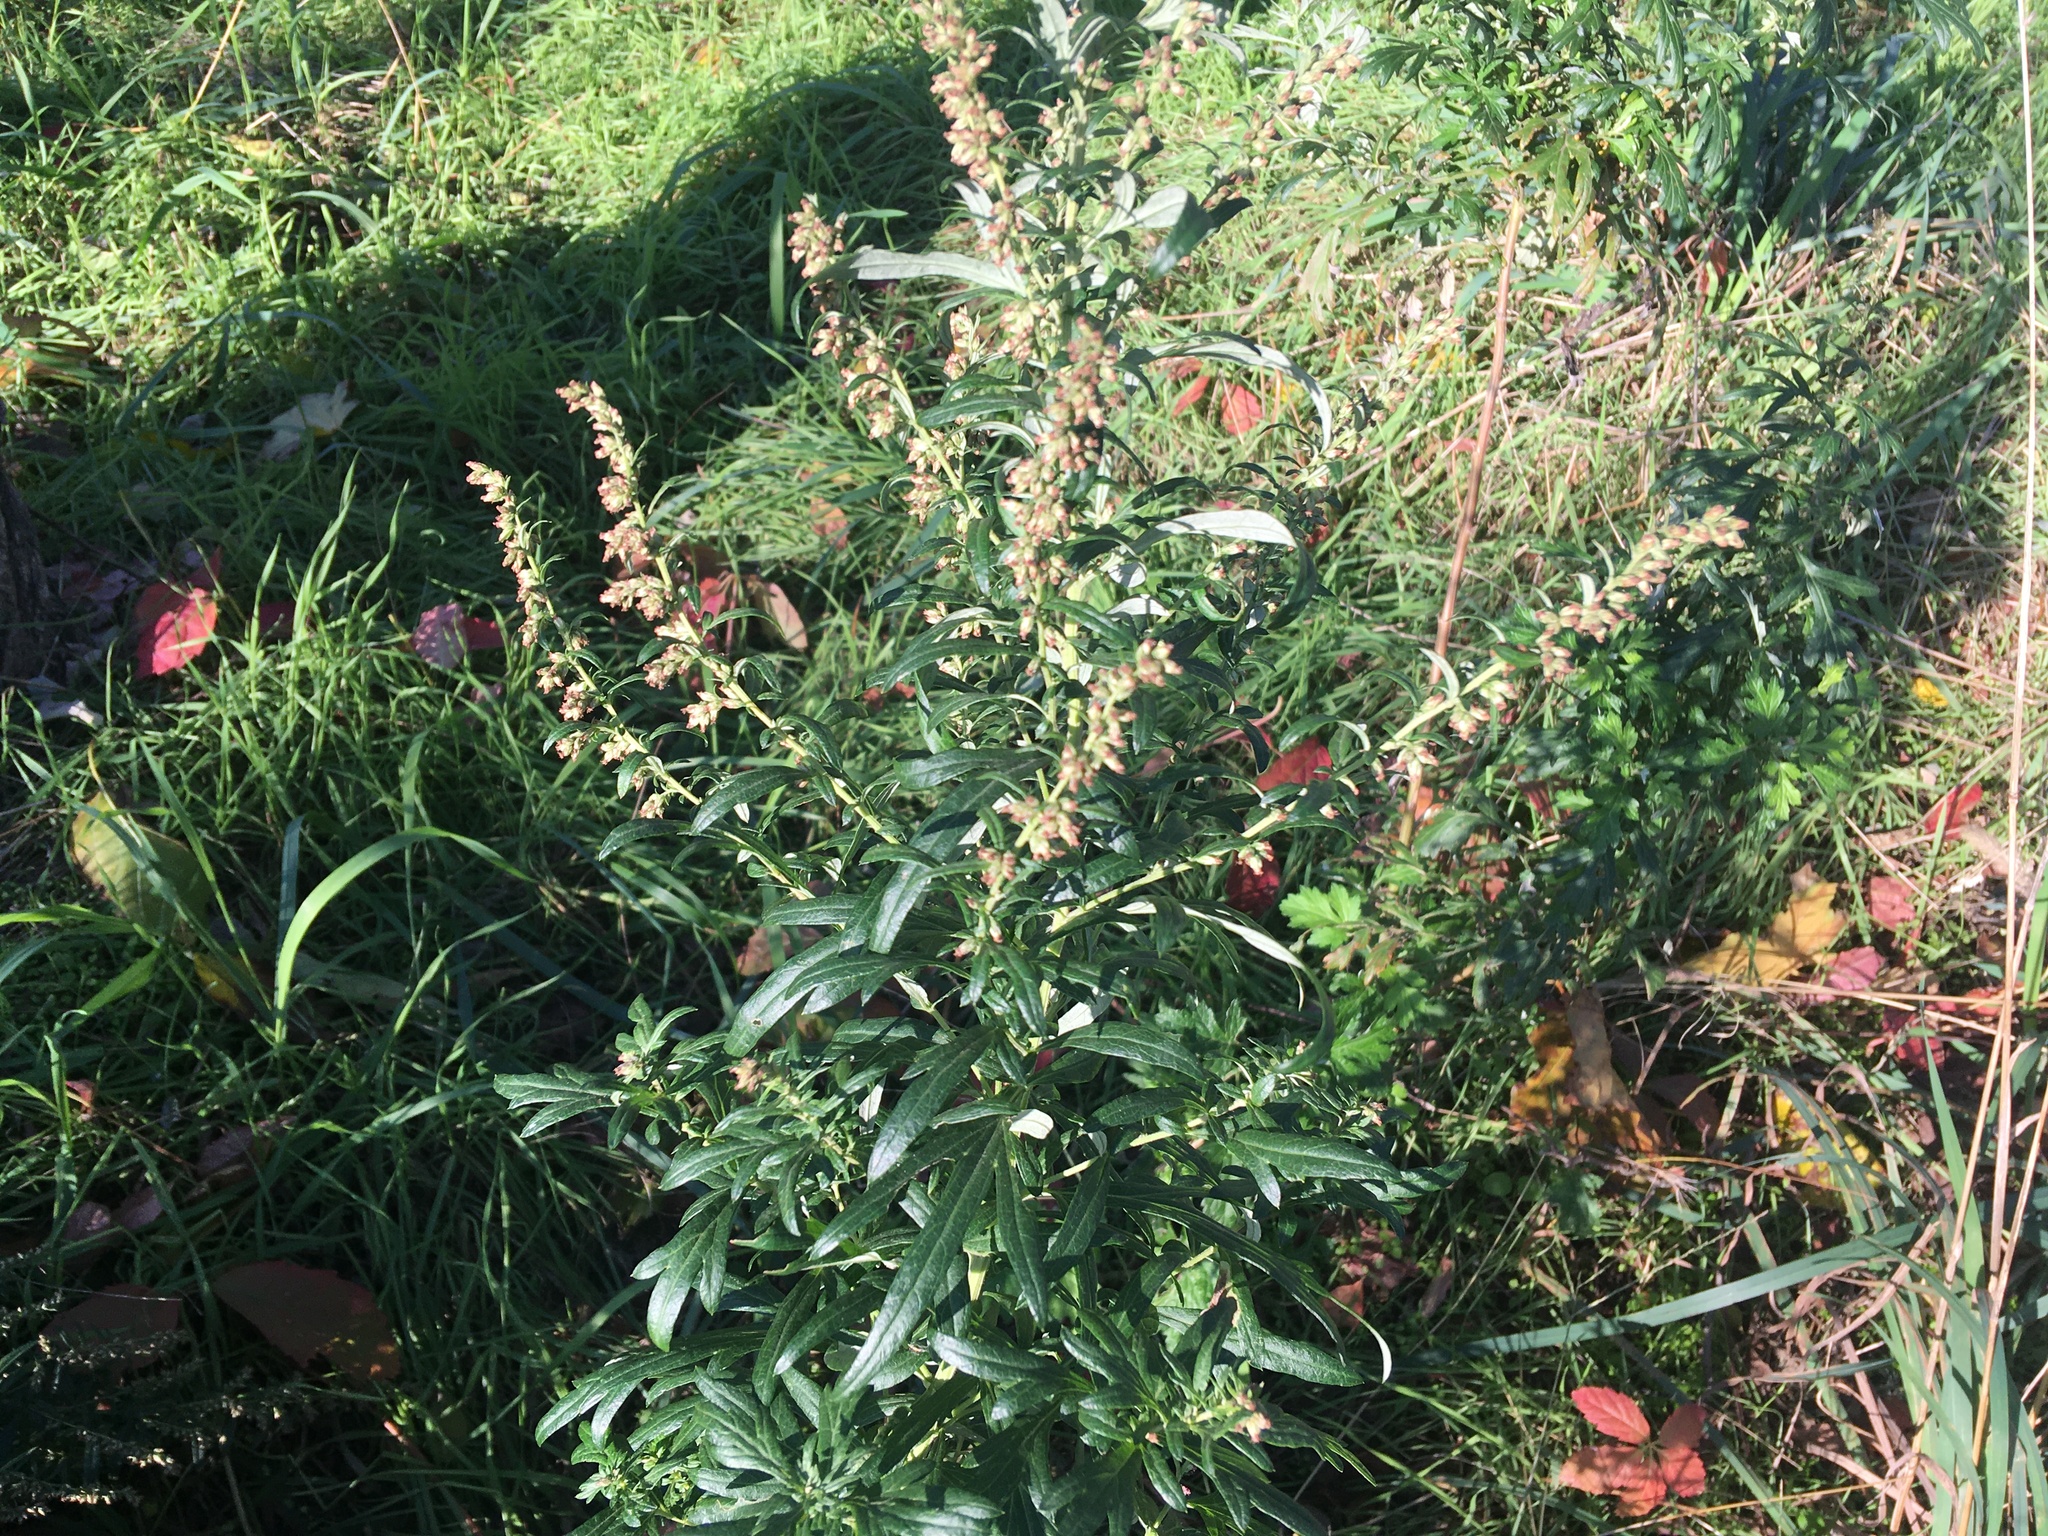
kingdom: Plantae
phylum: Tracheophyta
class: Magnoliopsida
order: Asterales
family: Asteraceae
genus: Artemisia
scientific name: Artemisia vulgaris
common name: Mugwort
